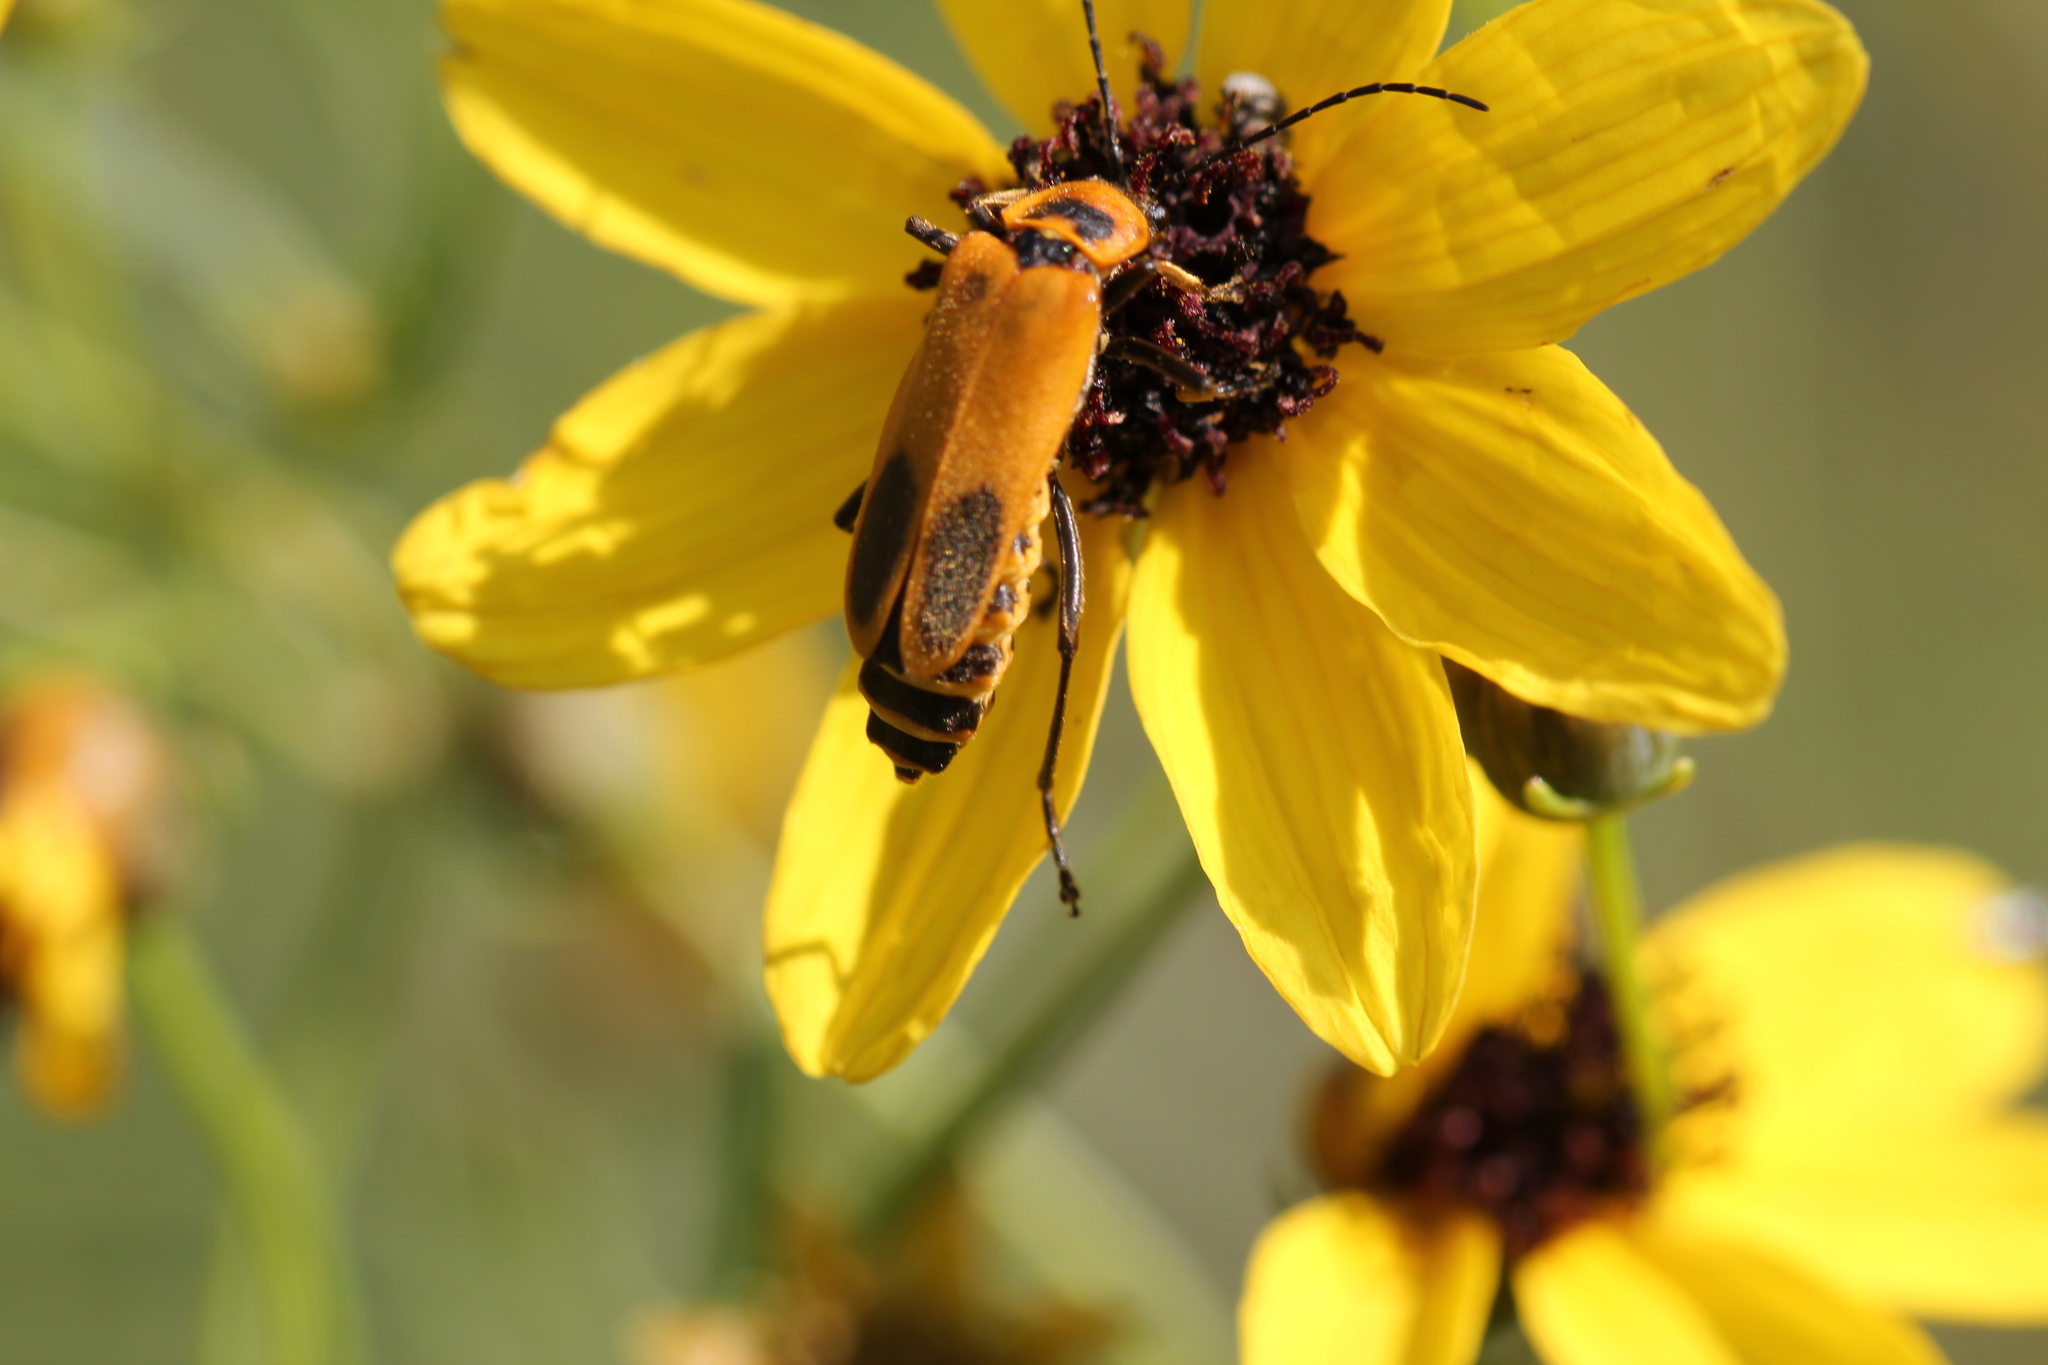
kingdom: Animalia
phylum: Arthropoda
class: Insecta
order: Coleoptera
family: Cantharidae
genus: Chauliognathus
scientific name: Chauliognathus pensylvanicus
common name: Goldenrod soldier beetle
